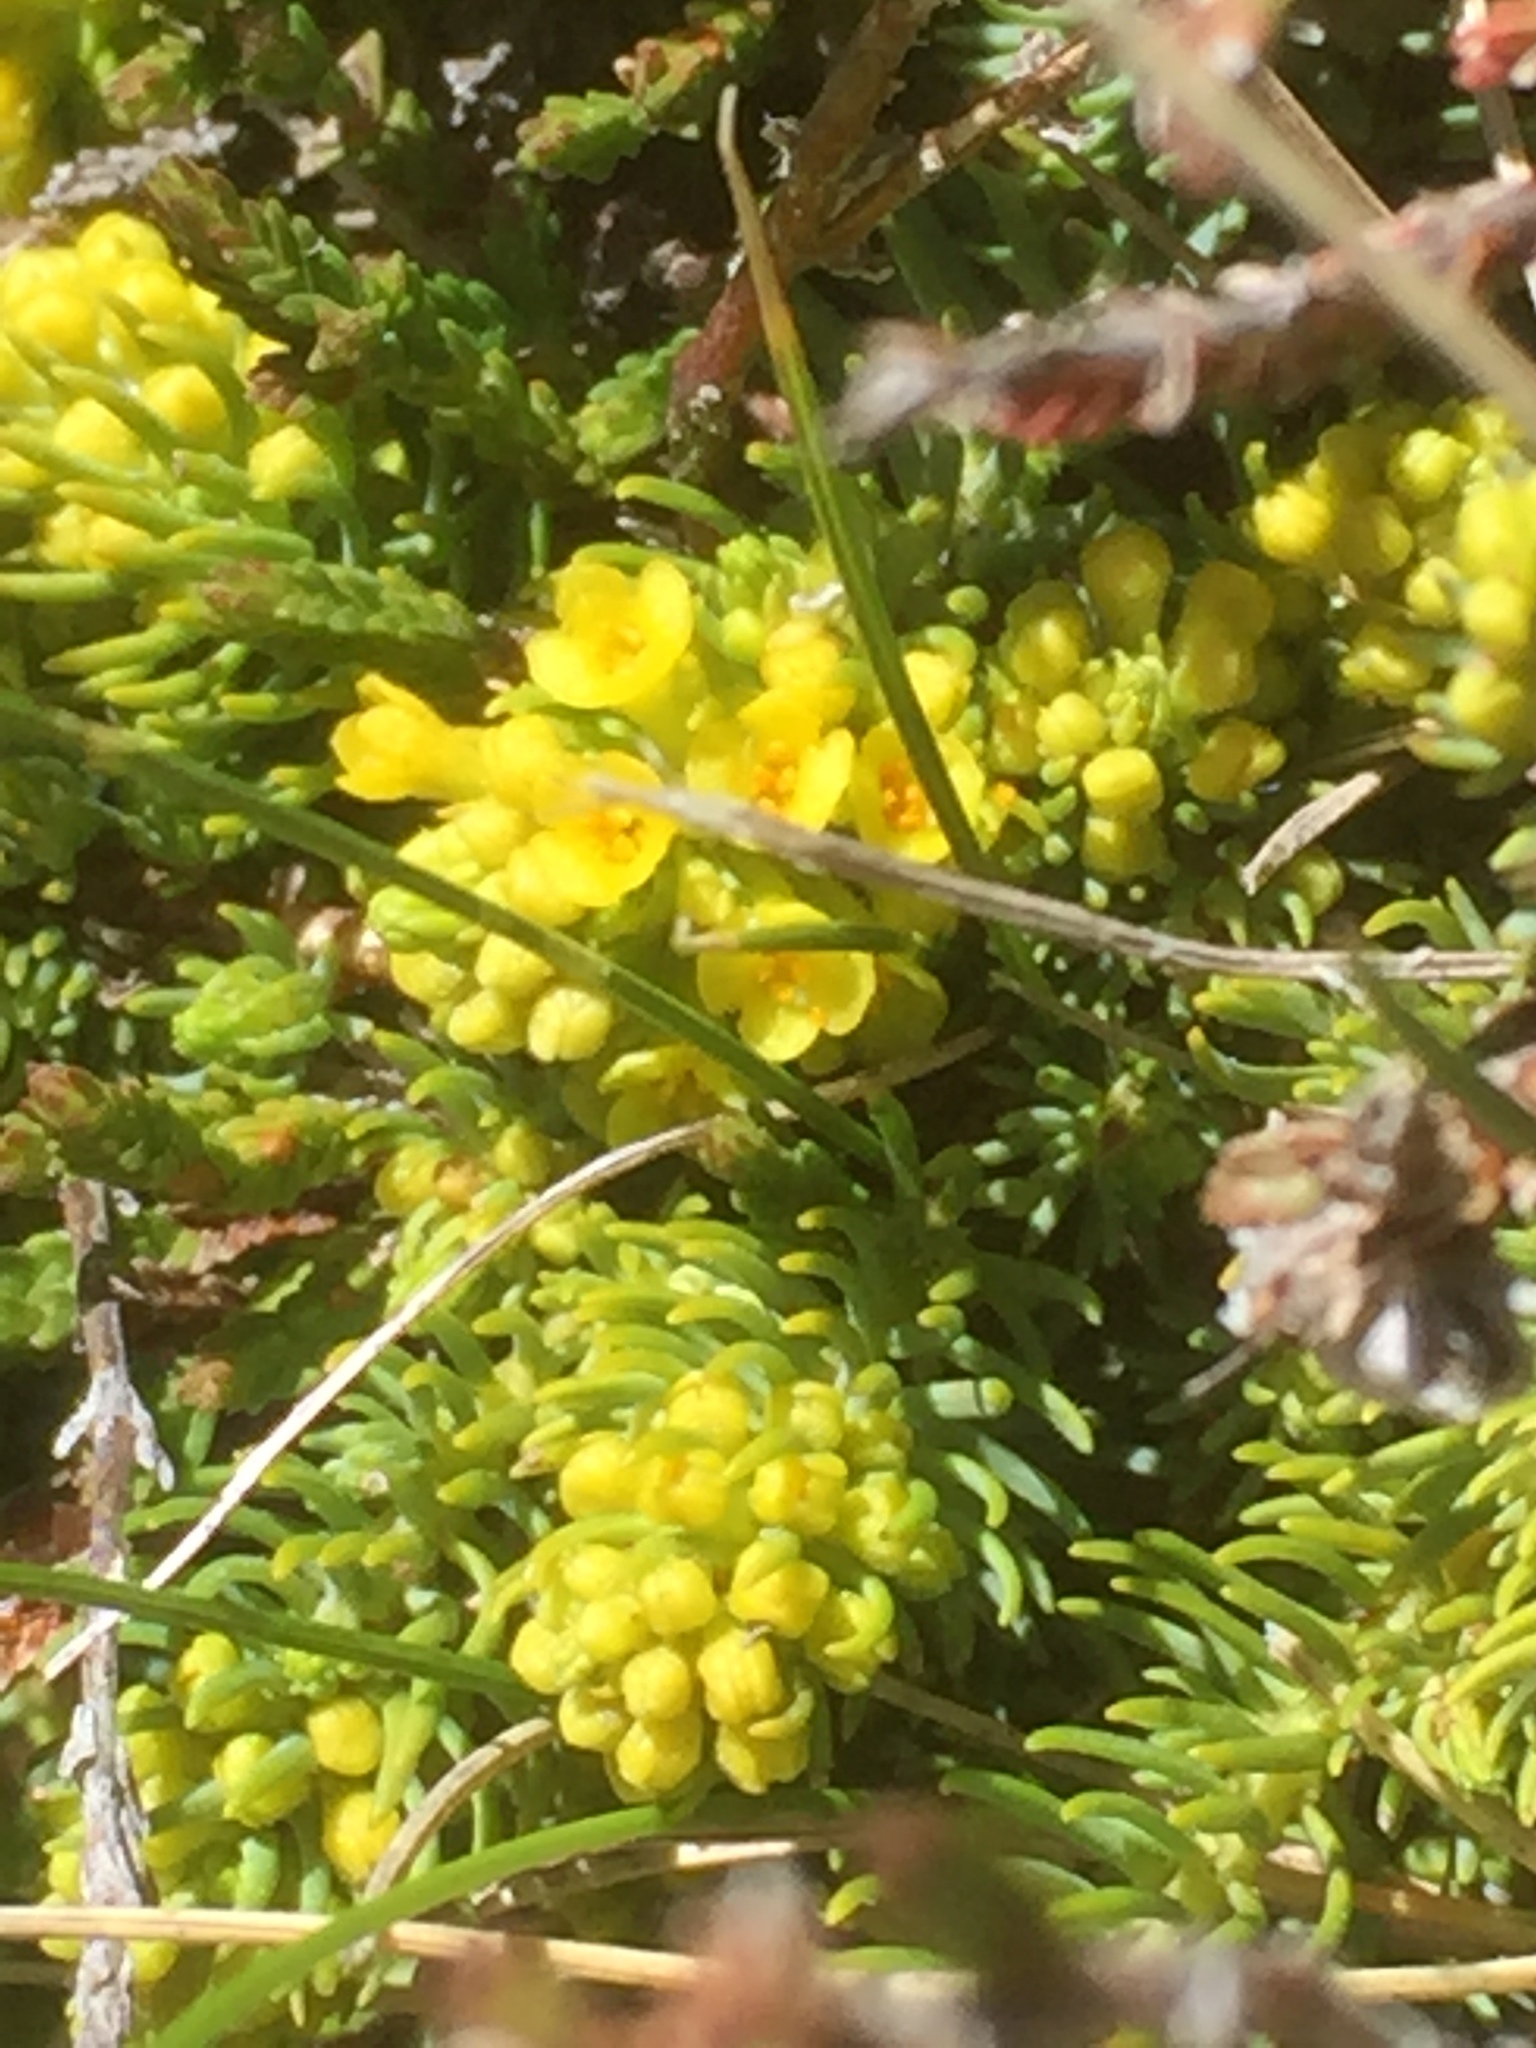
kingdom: Plantae
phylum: Tracheophyta
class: Magnoliopsida
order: Malvales
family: Thymelaeaceae
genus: Thymelaea
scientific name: Thymelaea coridifolia
